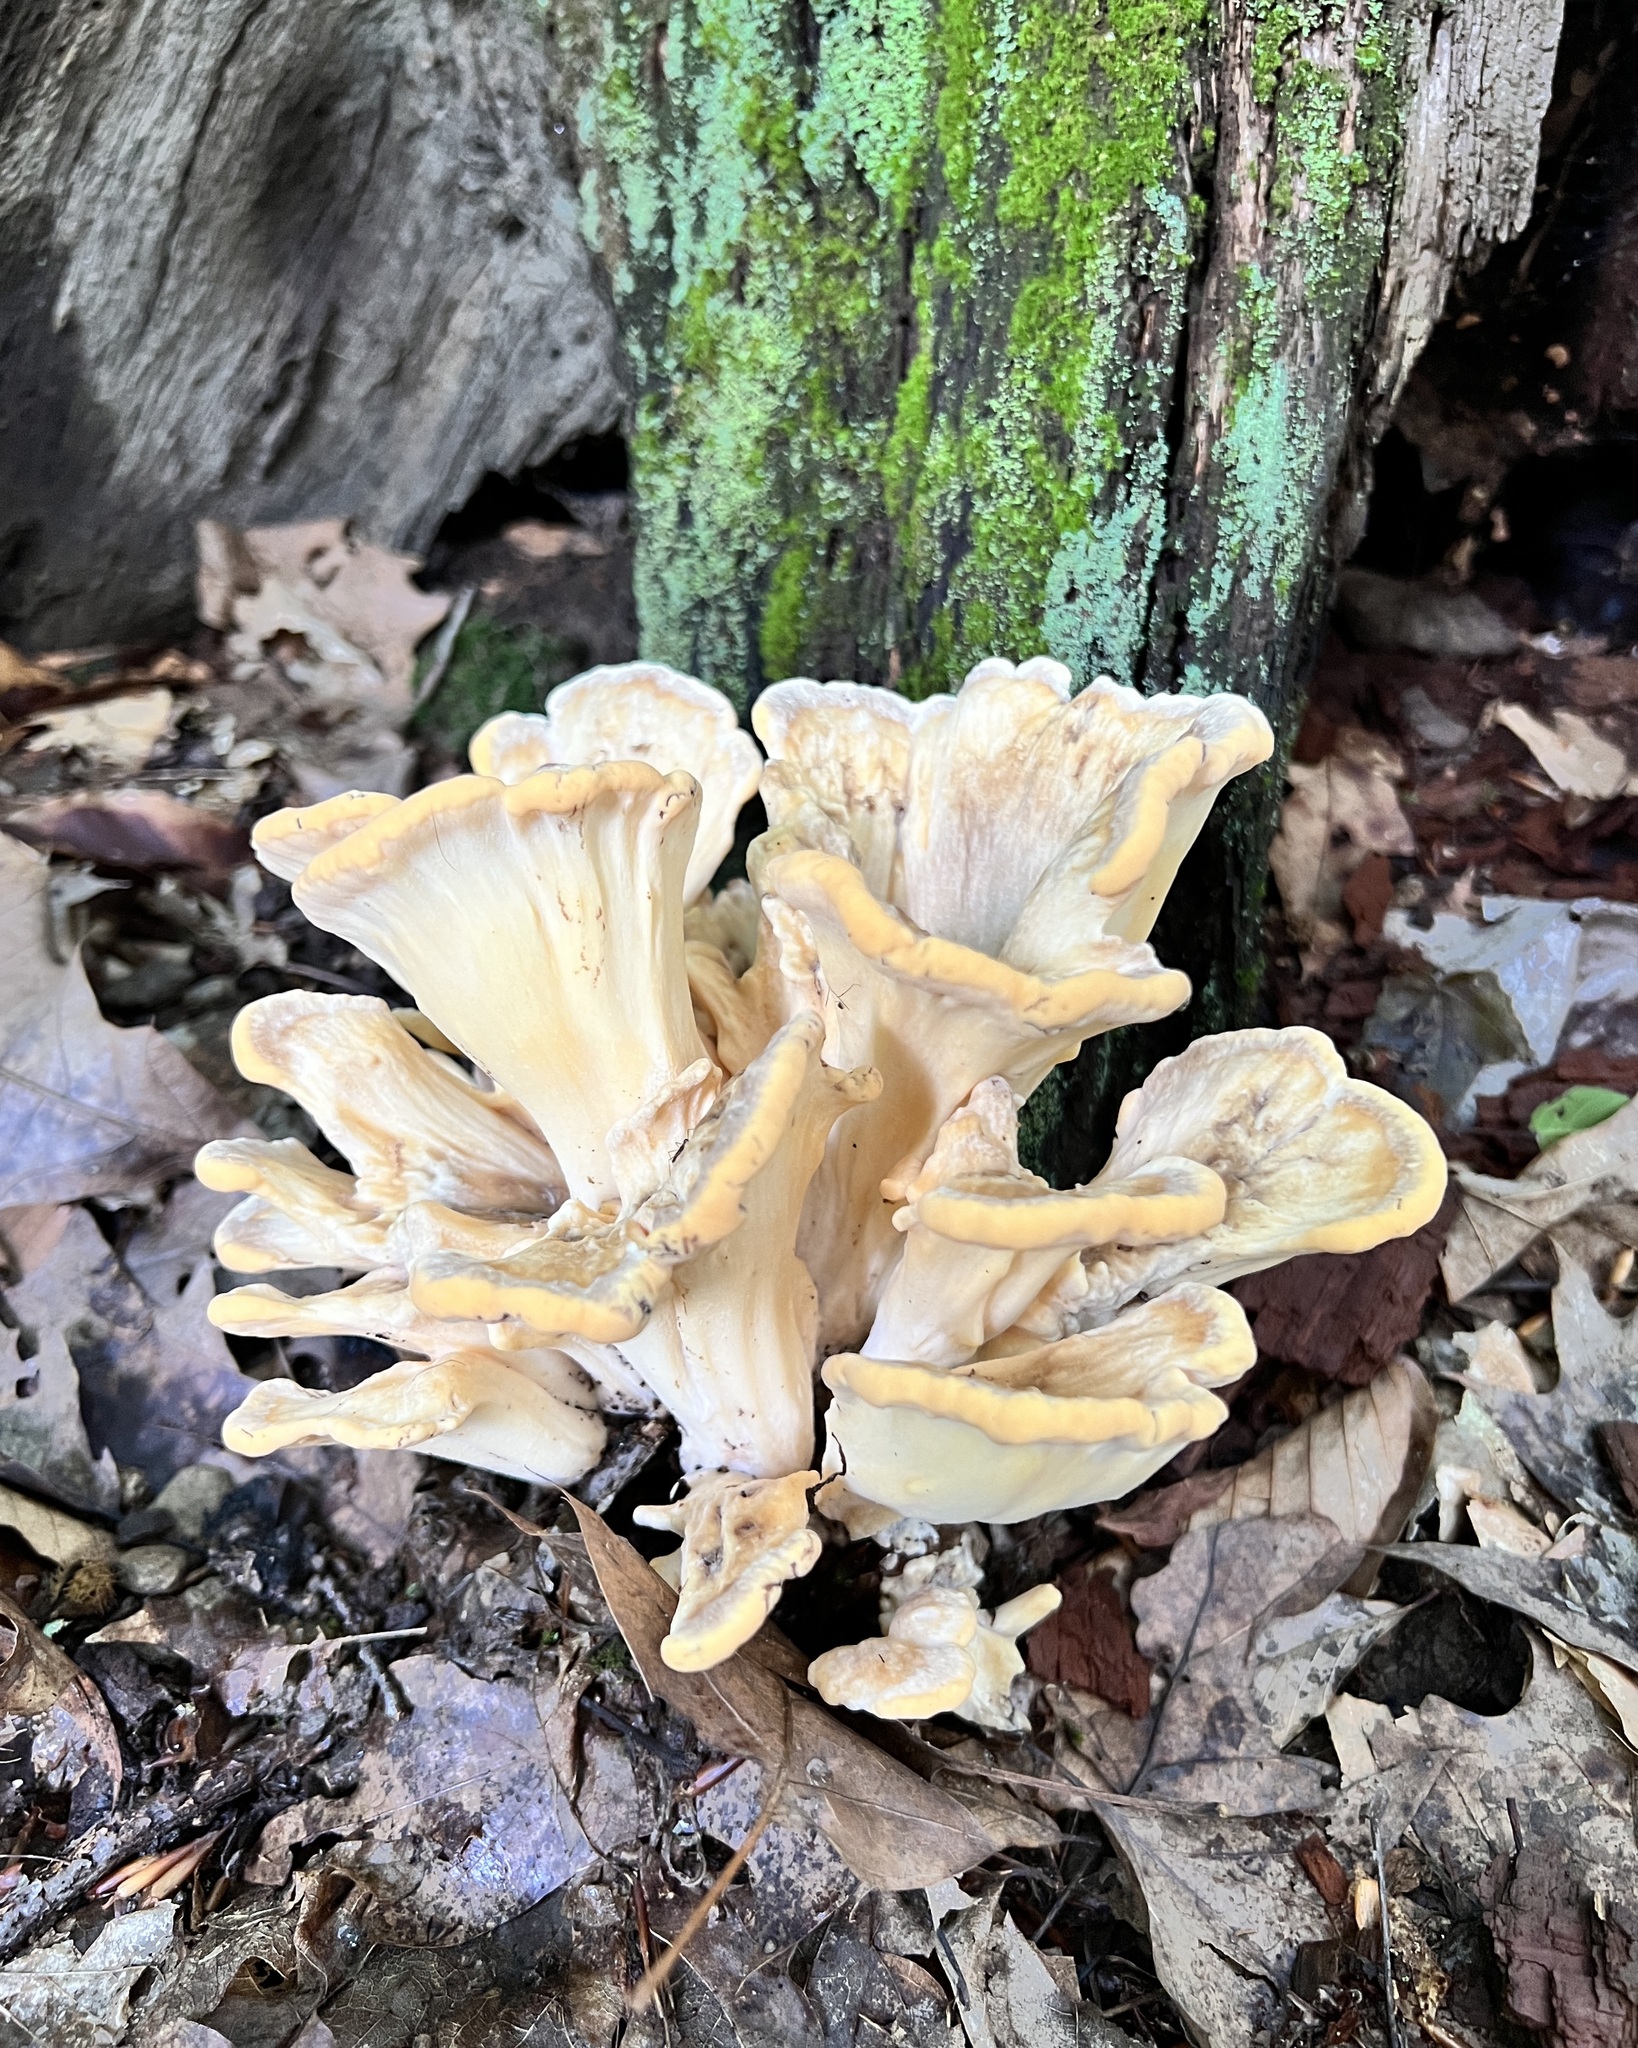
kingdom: Fungi
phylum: Basidiomycota
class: Agaricomycetes
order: Polyporales
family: Meripilaceae
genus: Meripilus
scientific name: Meripilus sumstinei
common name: Black-staining polypore
